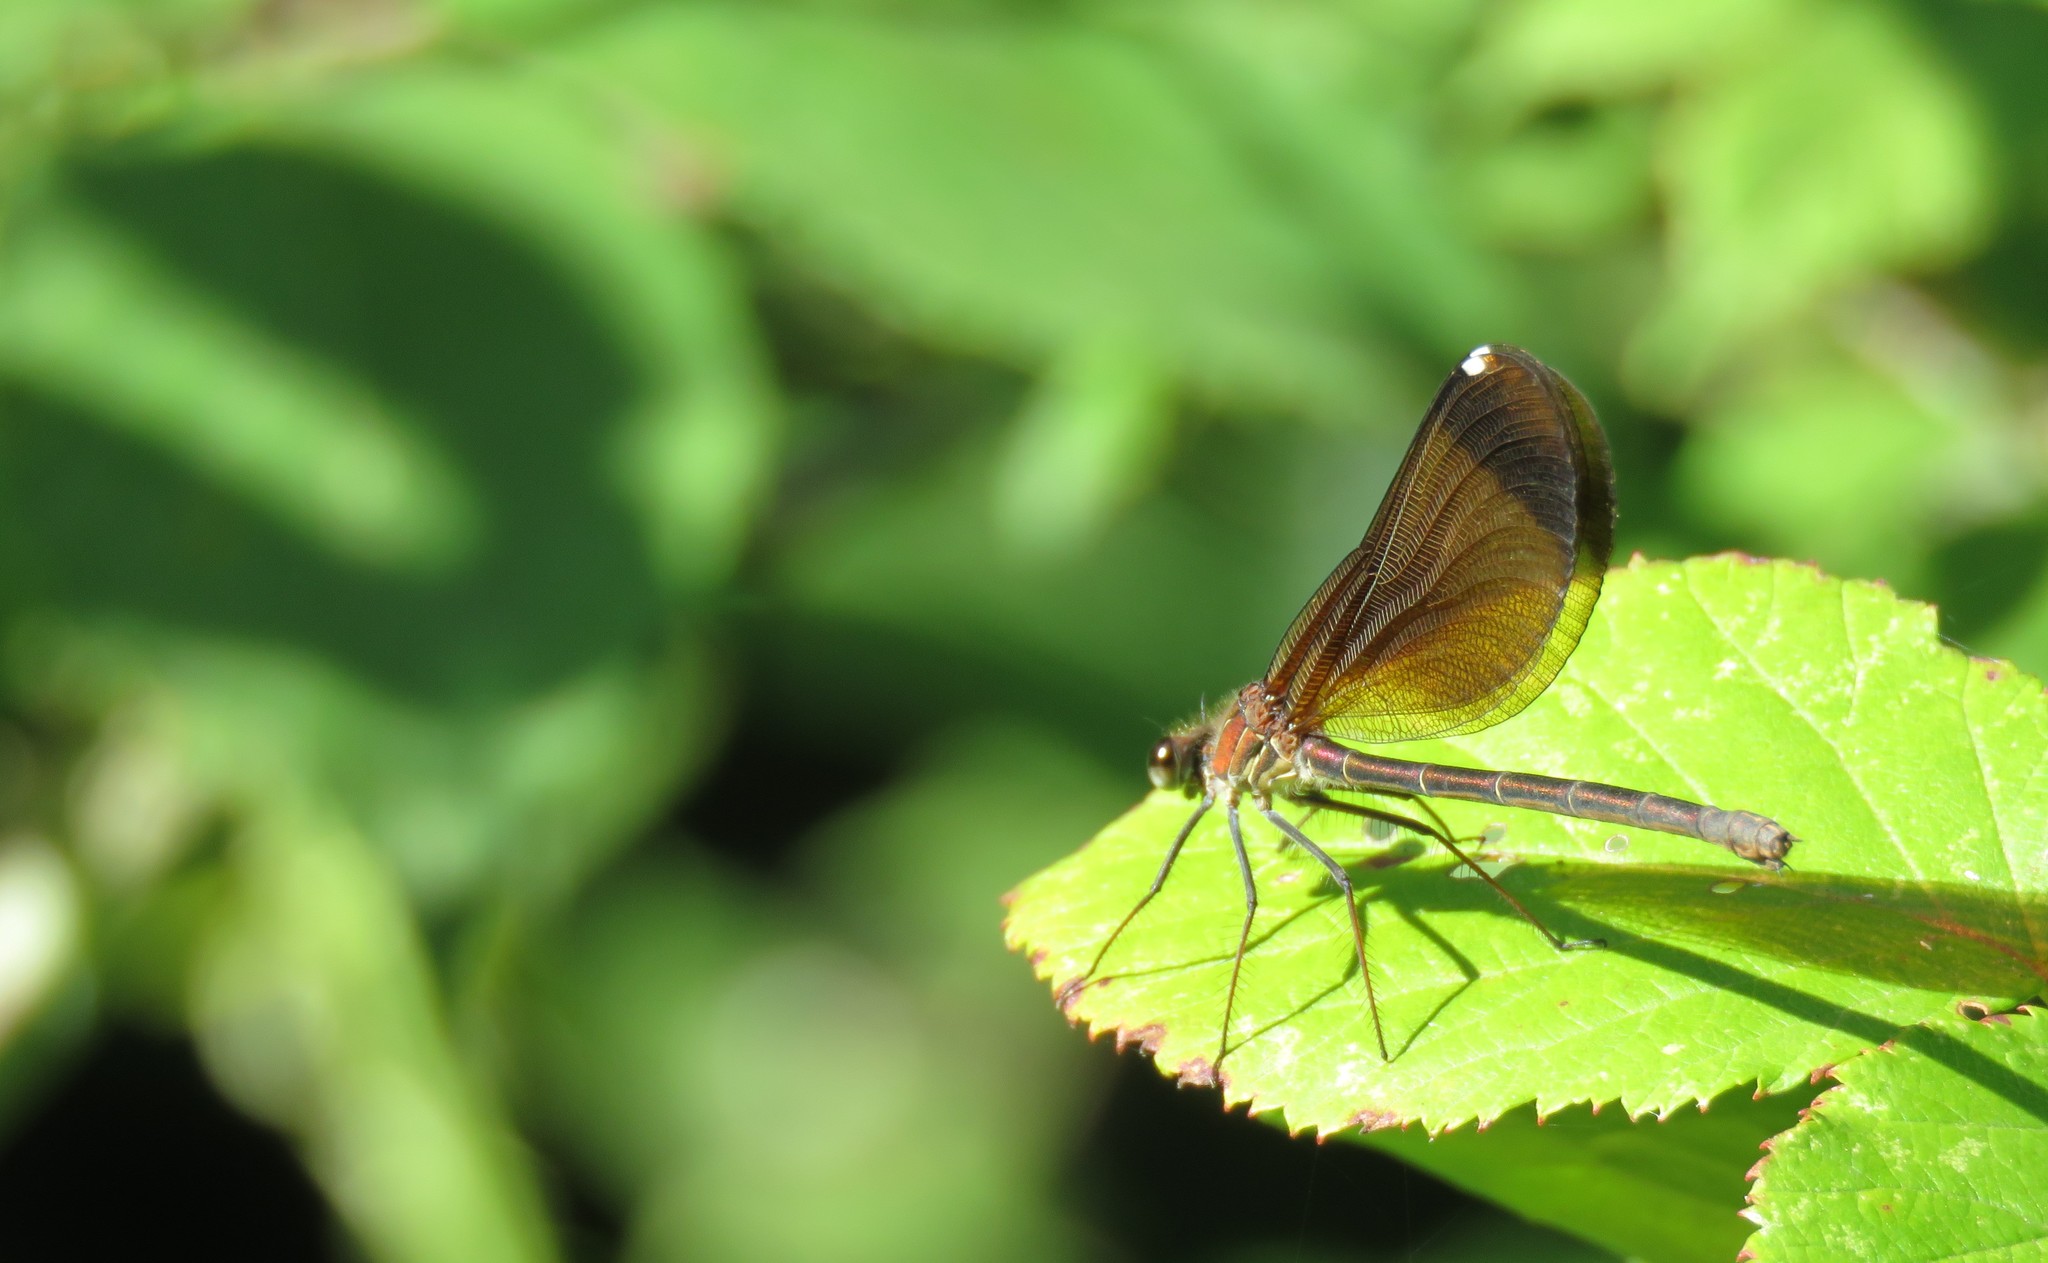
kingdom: Animalia
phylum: Arthropoda
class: Insecta
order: Odonata
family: Calopterygidae
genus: Calopteryx
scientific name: Calopteryx haemorrhoidalis
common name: Copper demoiselle
